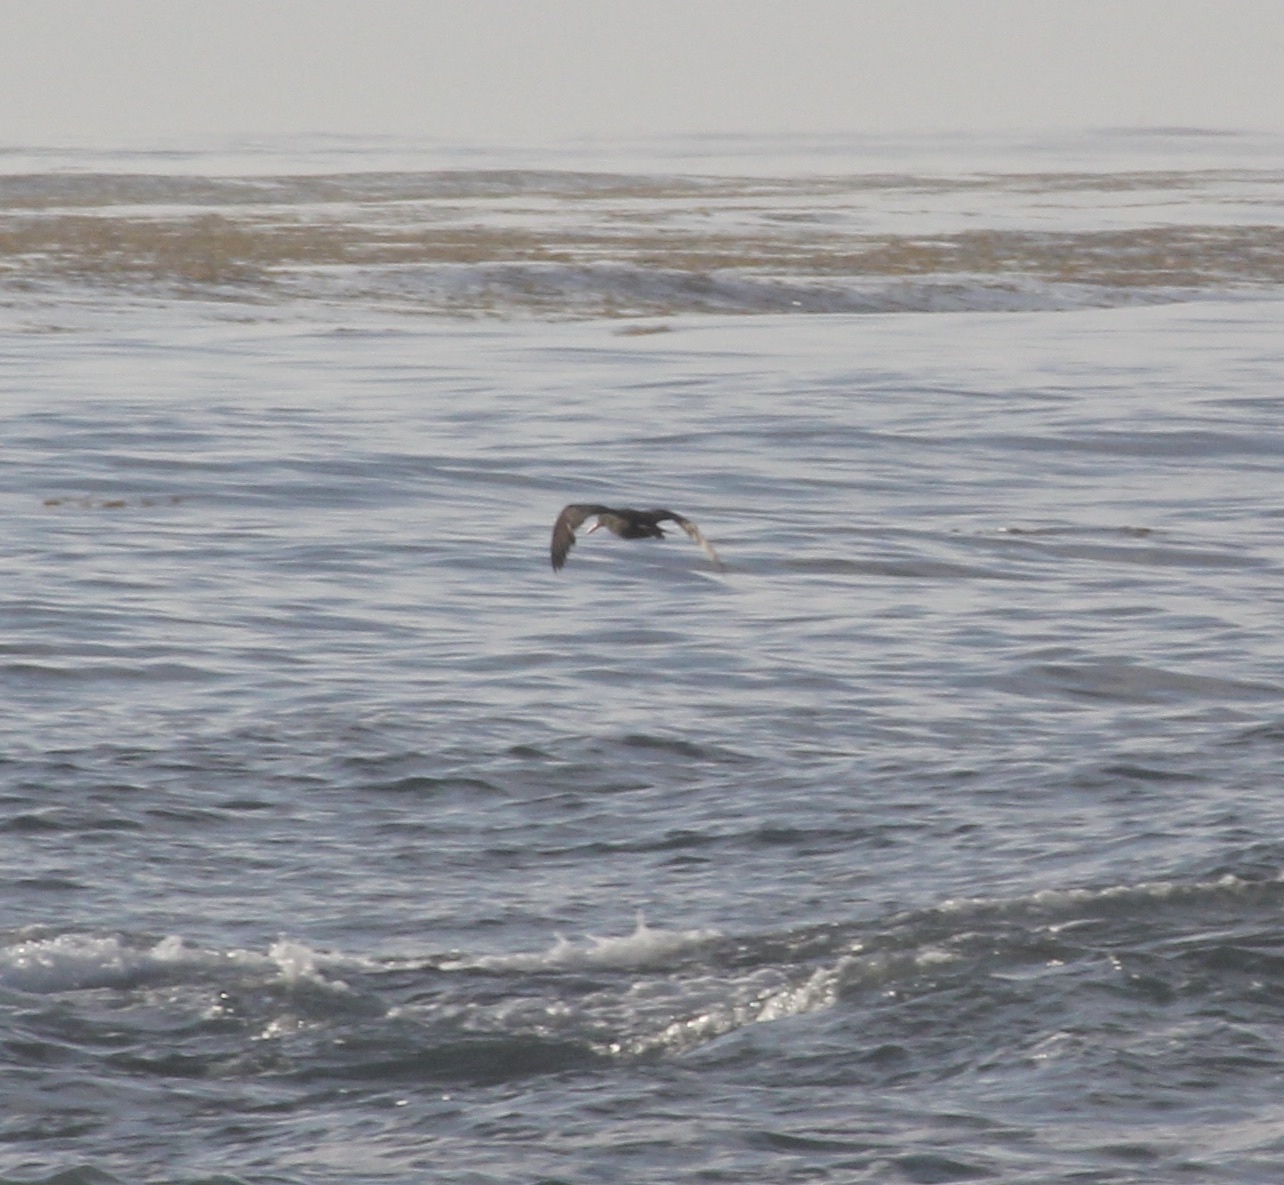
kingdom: Animalia
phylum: Chordata
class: Aves
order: Charadriiformes
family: Haematopodidae
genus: Haematopus
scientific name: Haematopus bachmani
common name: Black oystercatcher
